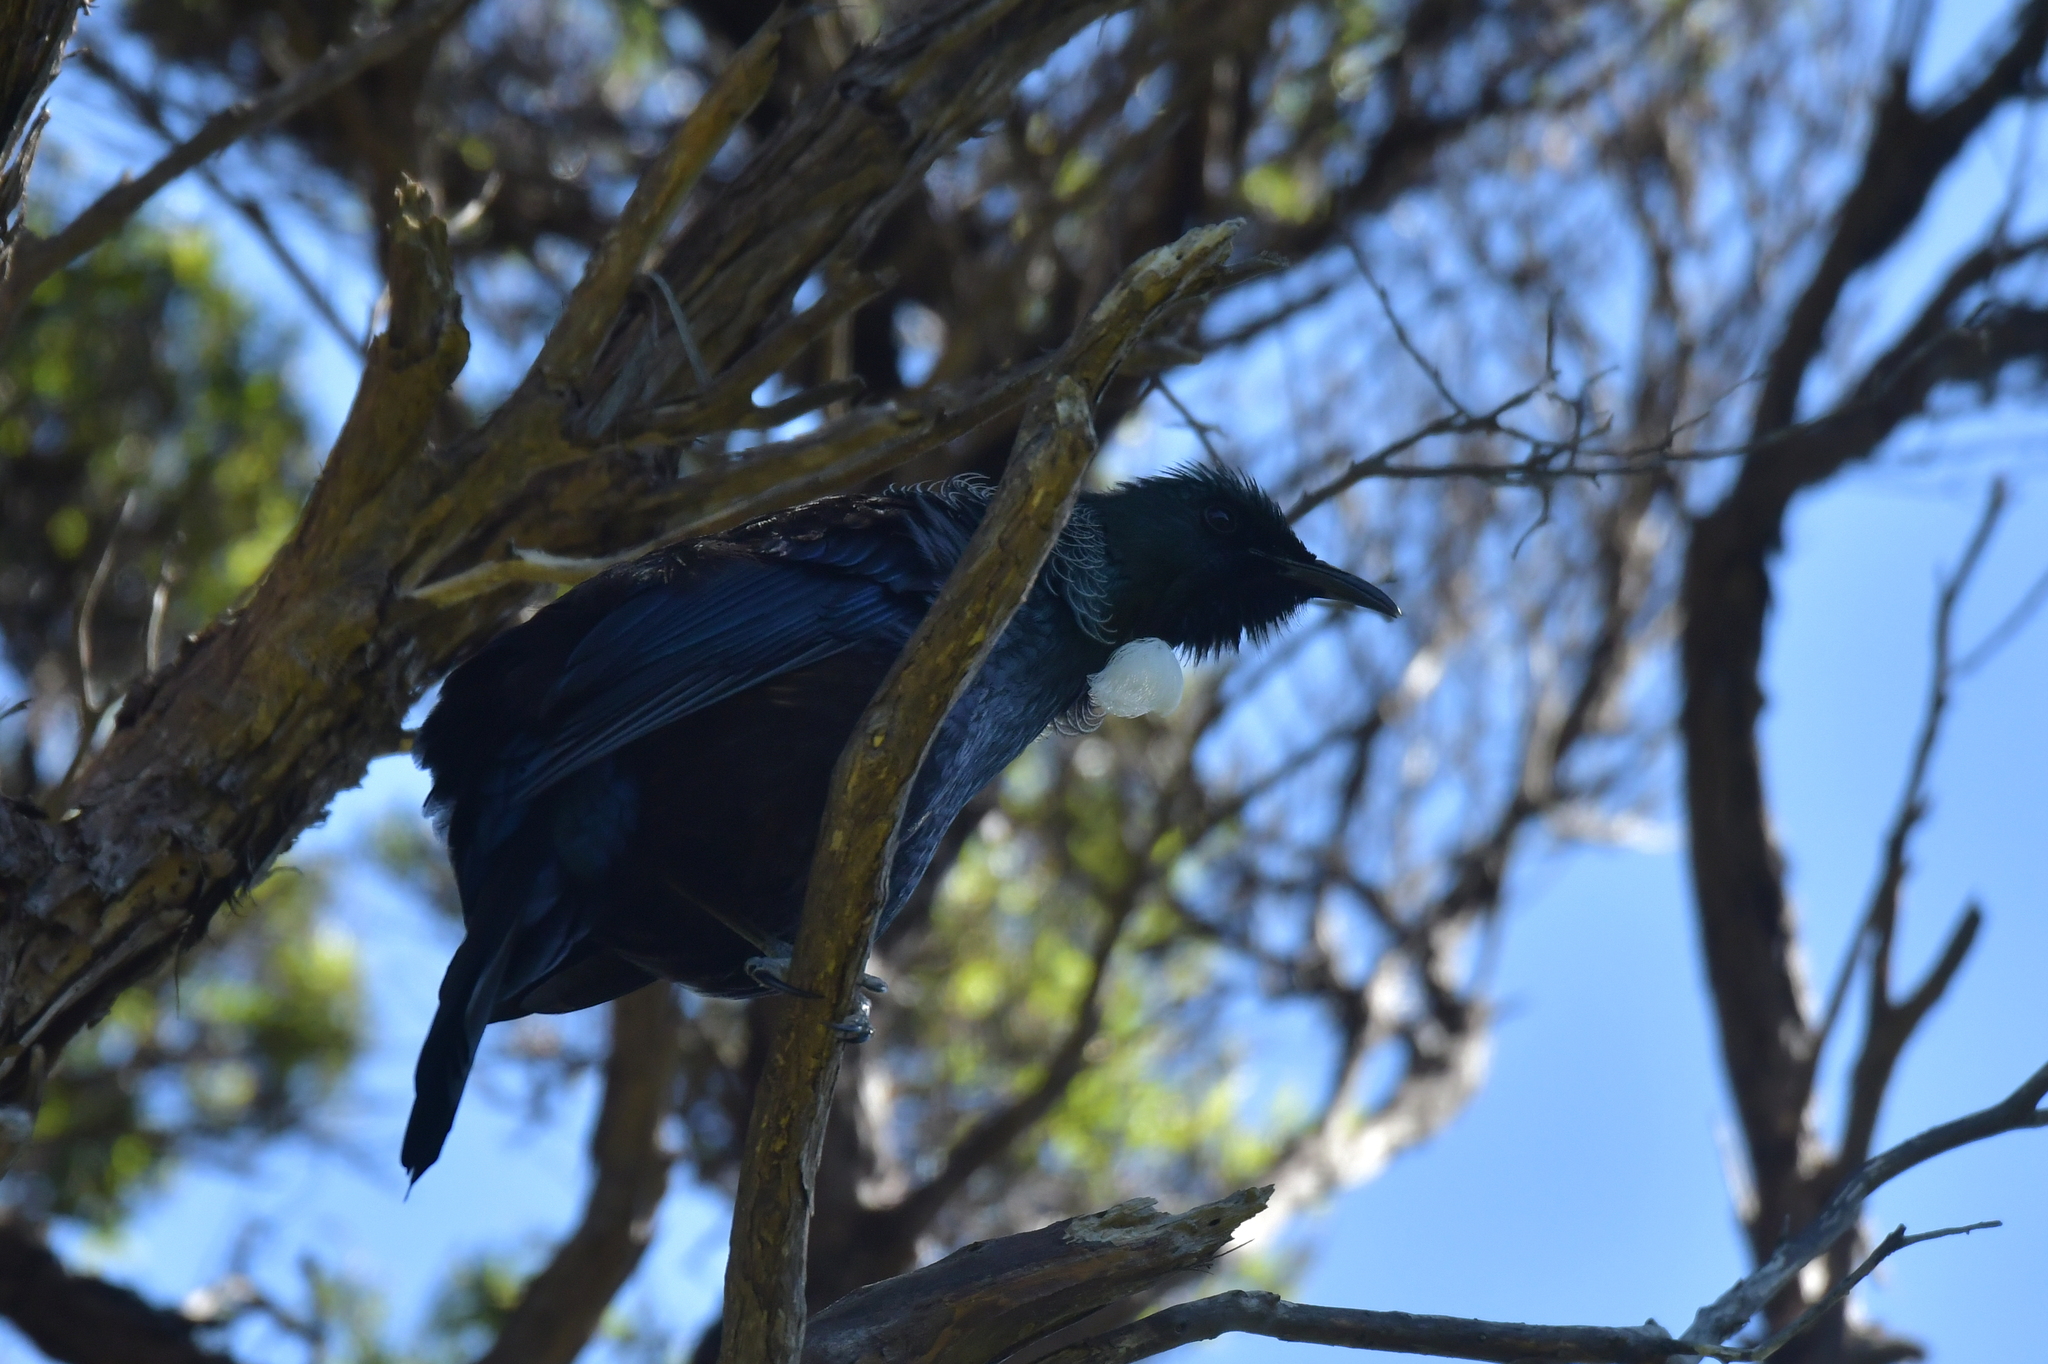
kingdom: Animalia
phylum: Chordata
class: Aves
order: Passeriformes
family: Meliphagidae
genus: Prosthemadera
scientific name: Prosthemadera novaeseelandiae
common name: Tui
